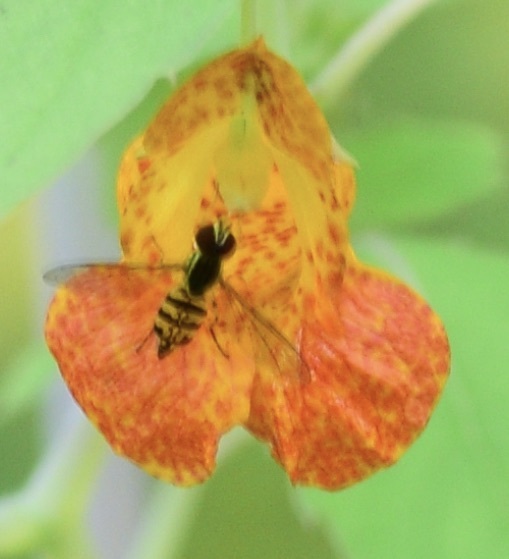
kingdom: Animalia
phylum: Arthropoda
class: Insecta
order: Diptera
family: Syrphidae
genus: Toxomerus
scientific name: Toxomerus geminatus
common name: Eastern calligrapher
